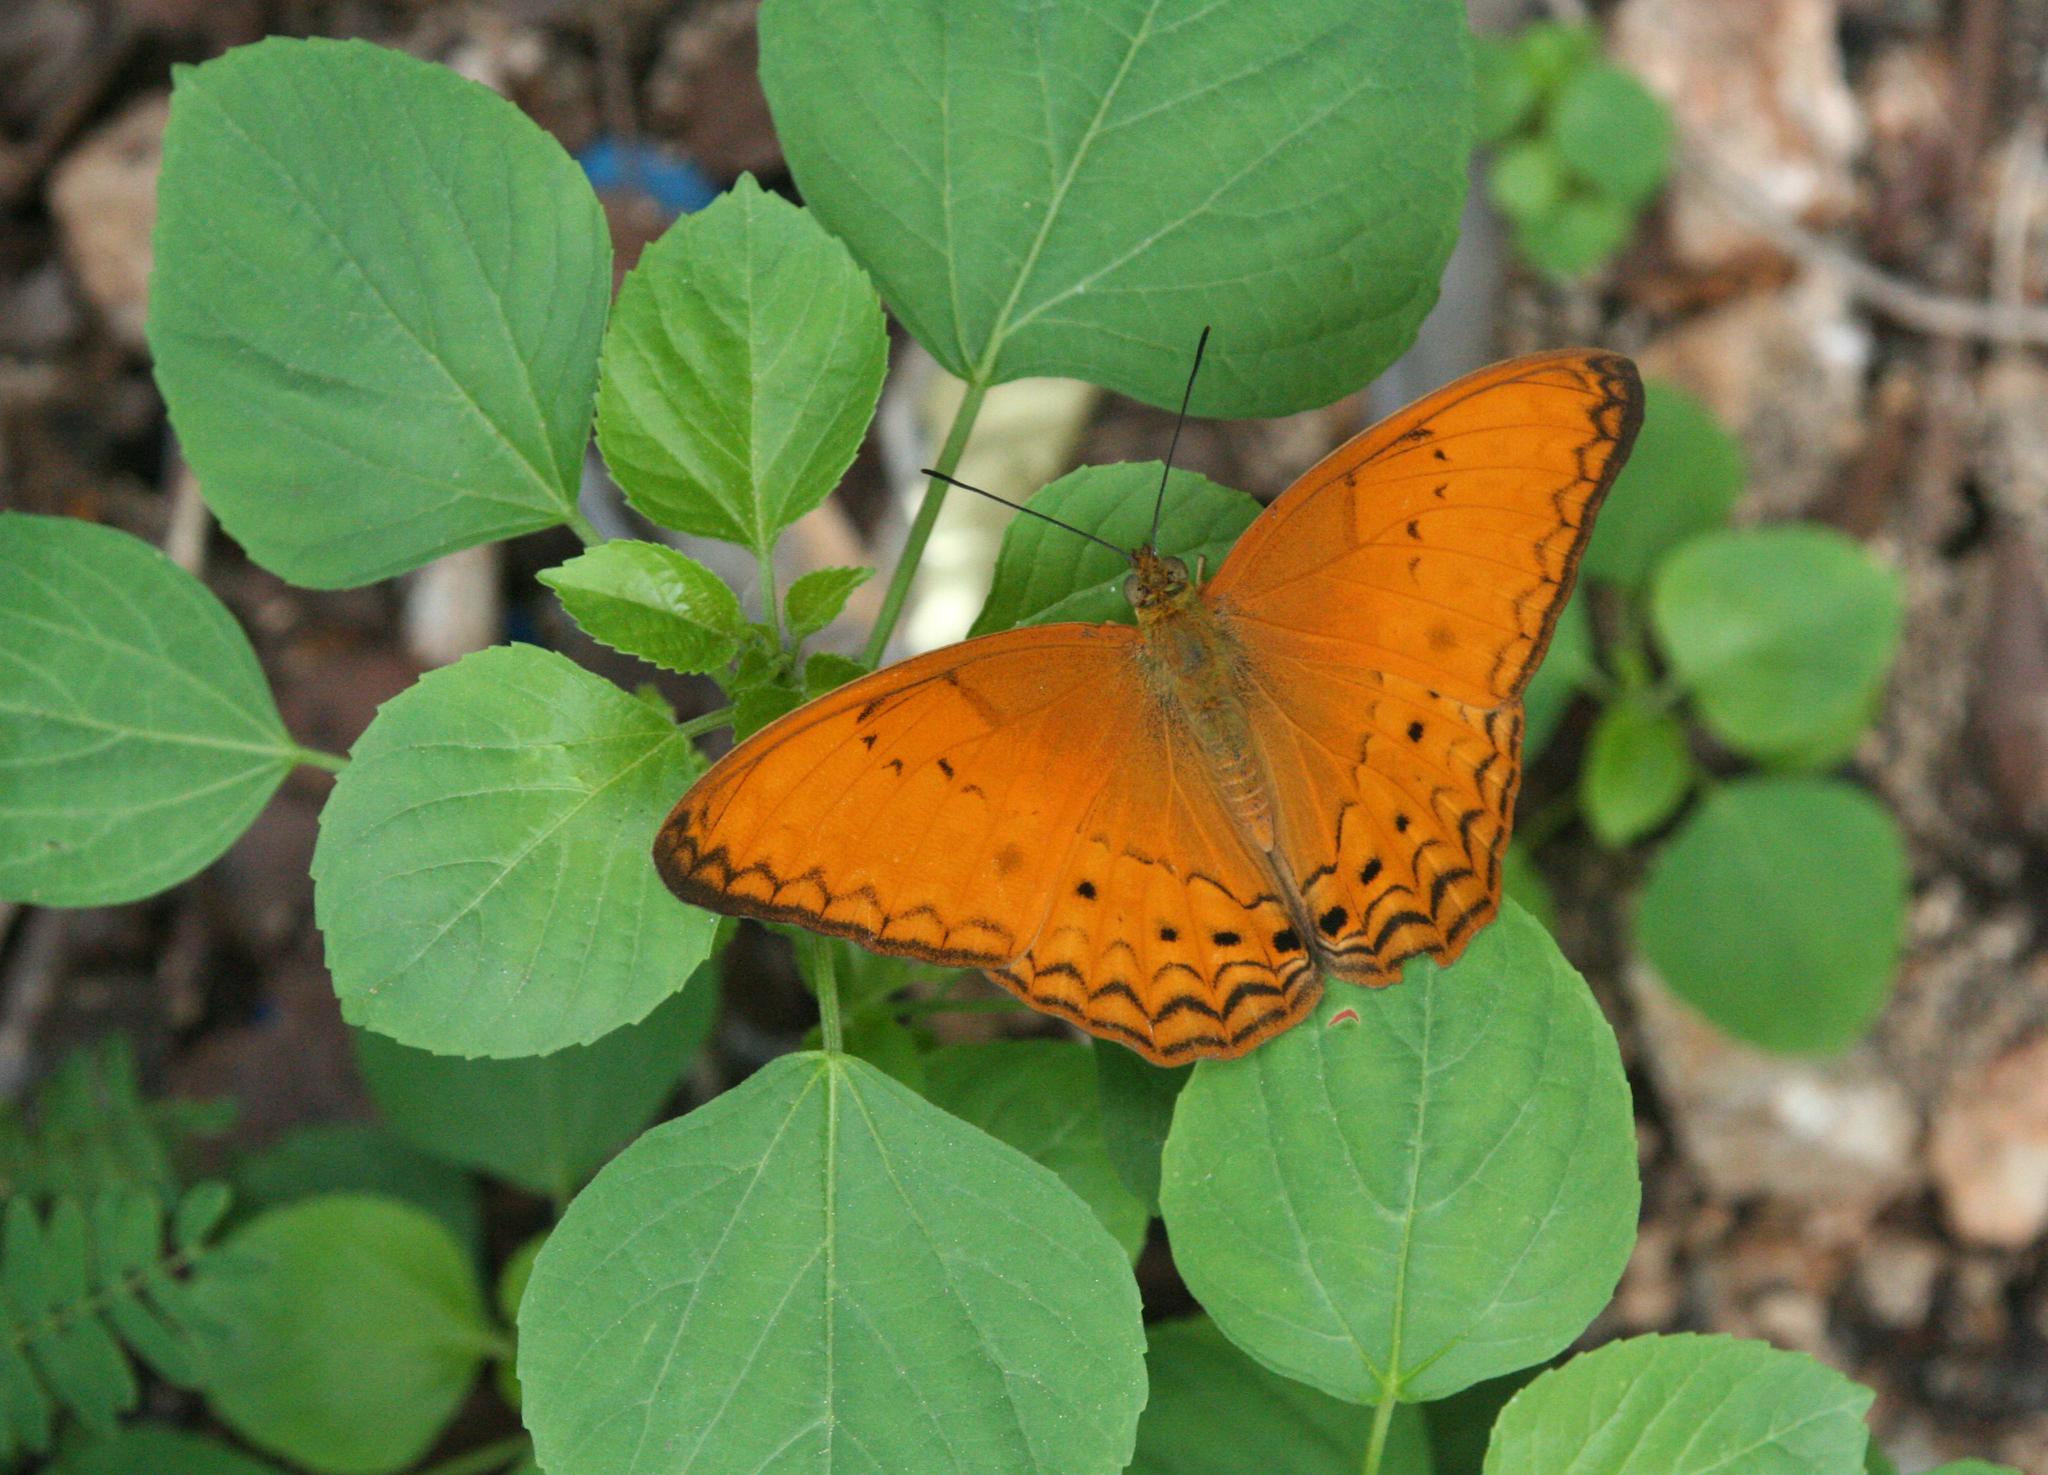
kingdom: Animalia
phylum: Arthropoda
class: Insecta
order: Lepidoptera
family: Nymphalidae
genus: Cirrochroa
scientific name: Cirrochroa tyche
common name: Common yeoman
